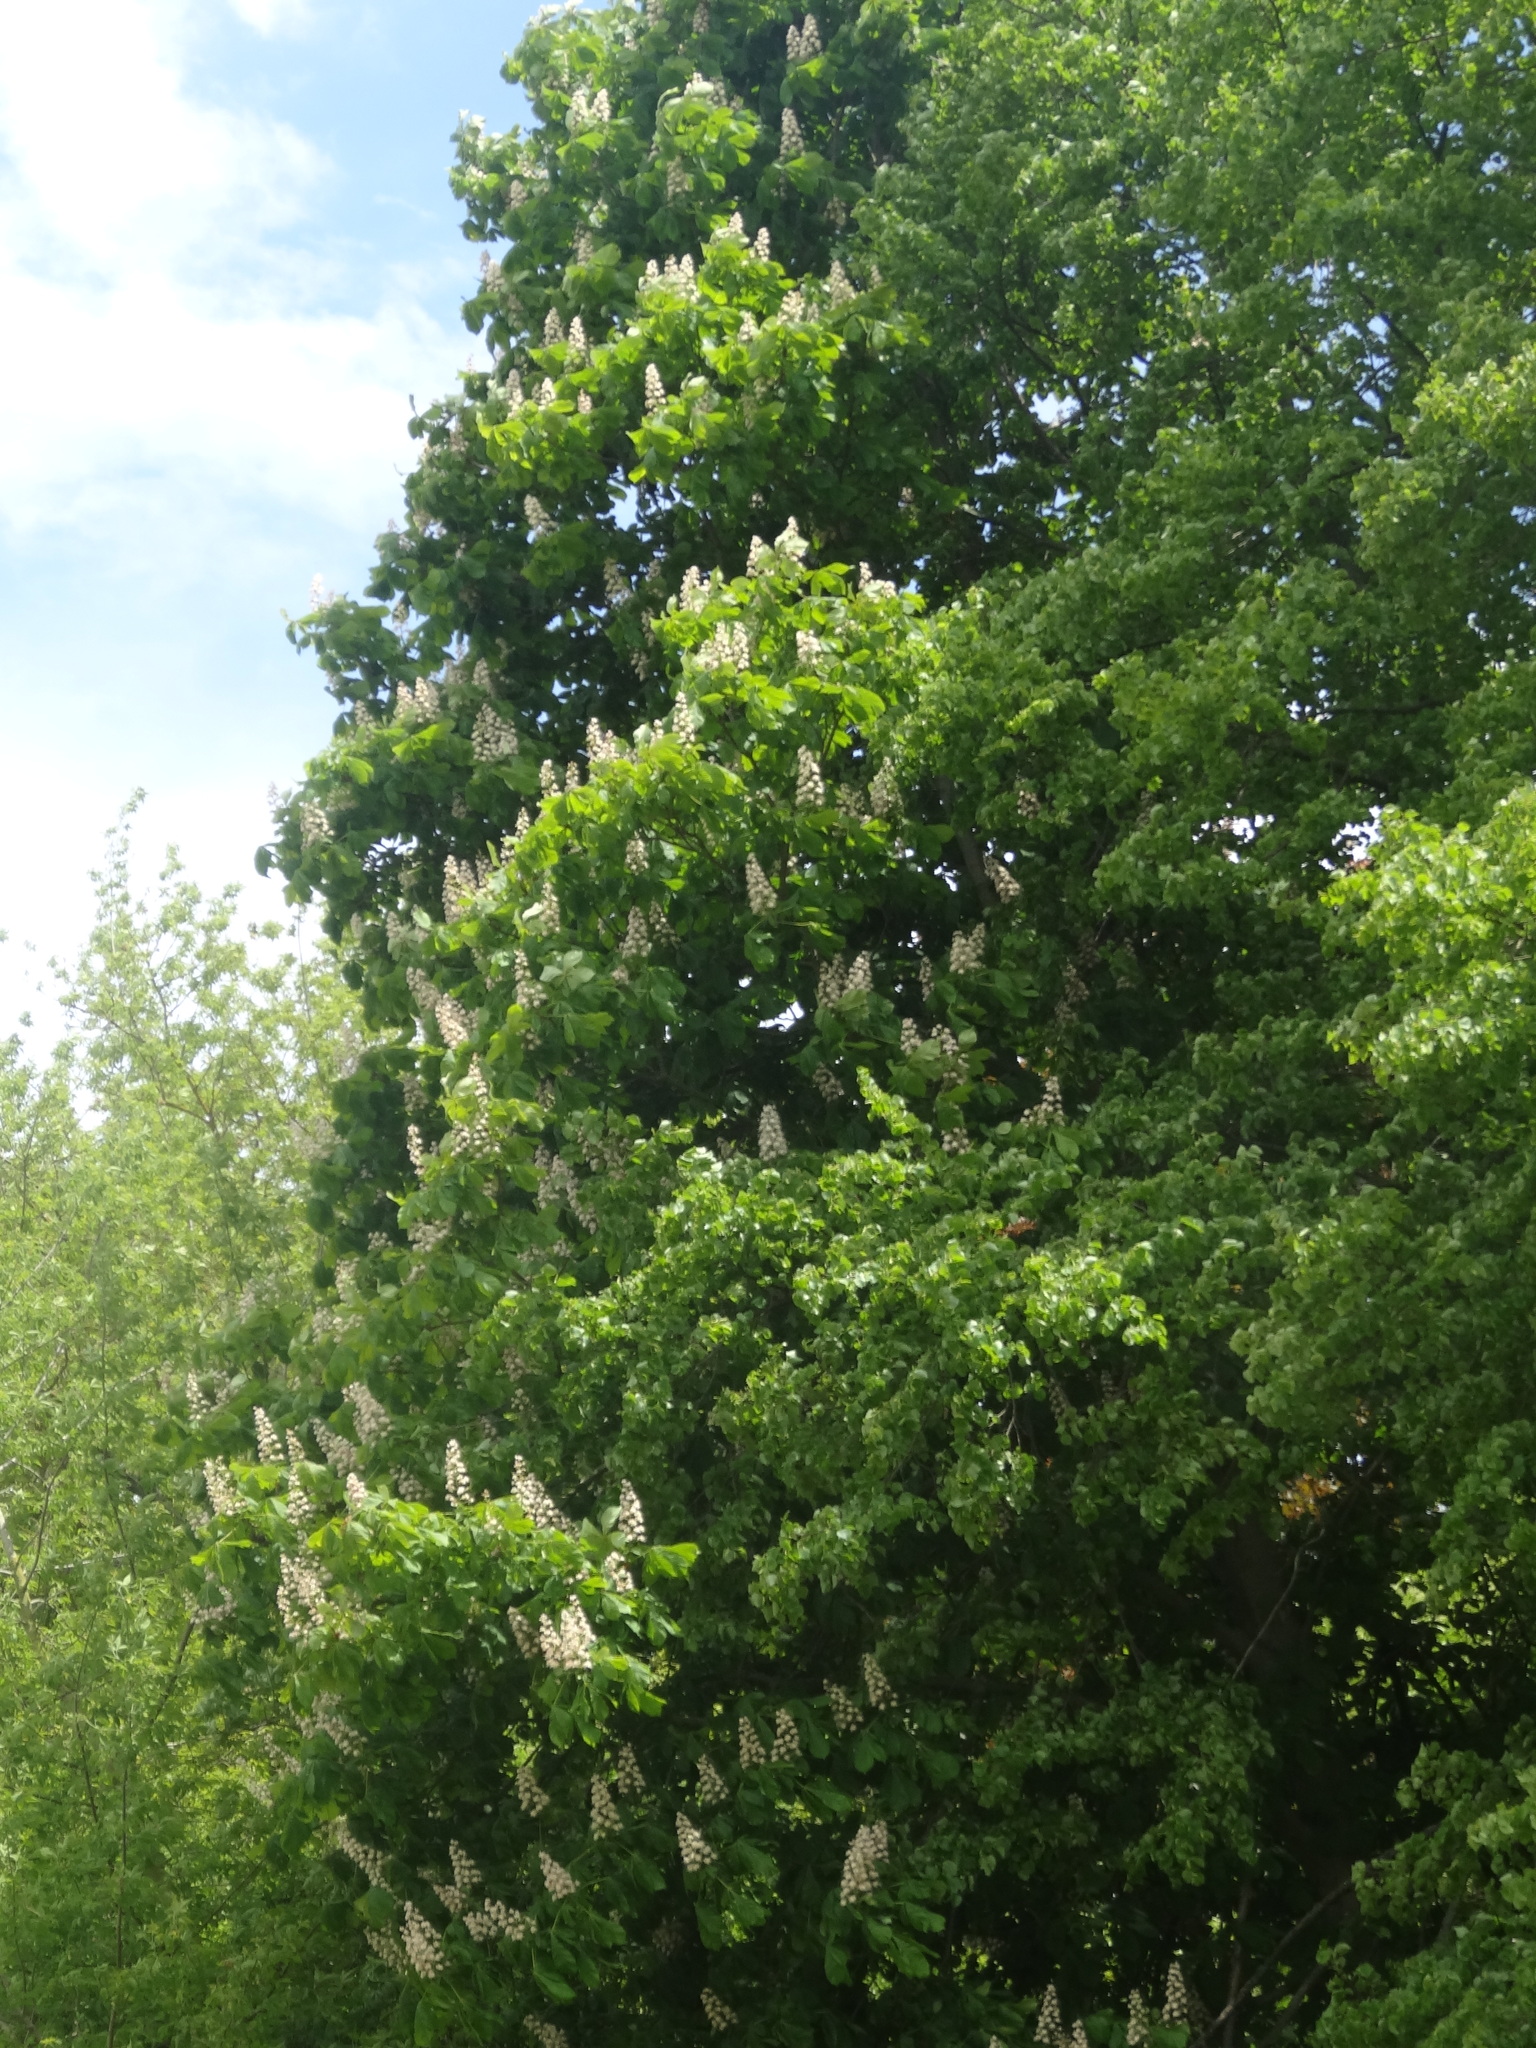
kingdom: Plantae
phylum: Tracheophyta
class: Magnoliopsida
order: Sapindales
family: Sapindaceae
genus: Aesculus
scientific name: Aesculus hippocastanum
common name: Horse-chestnut
